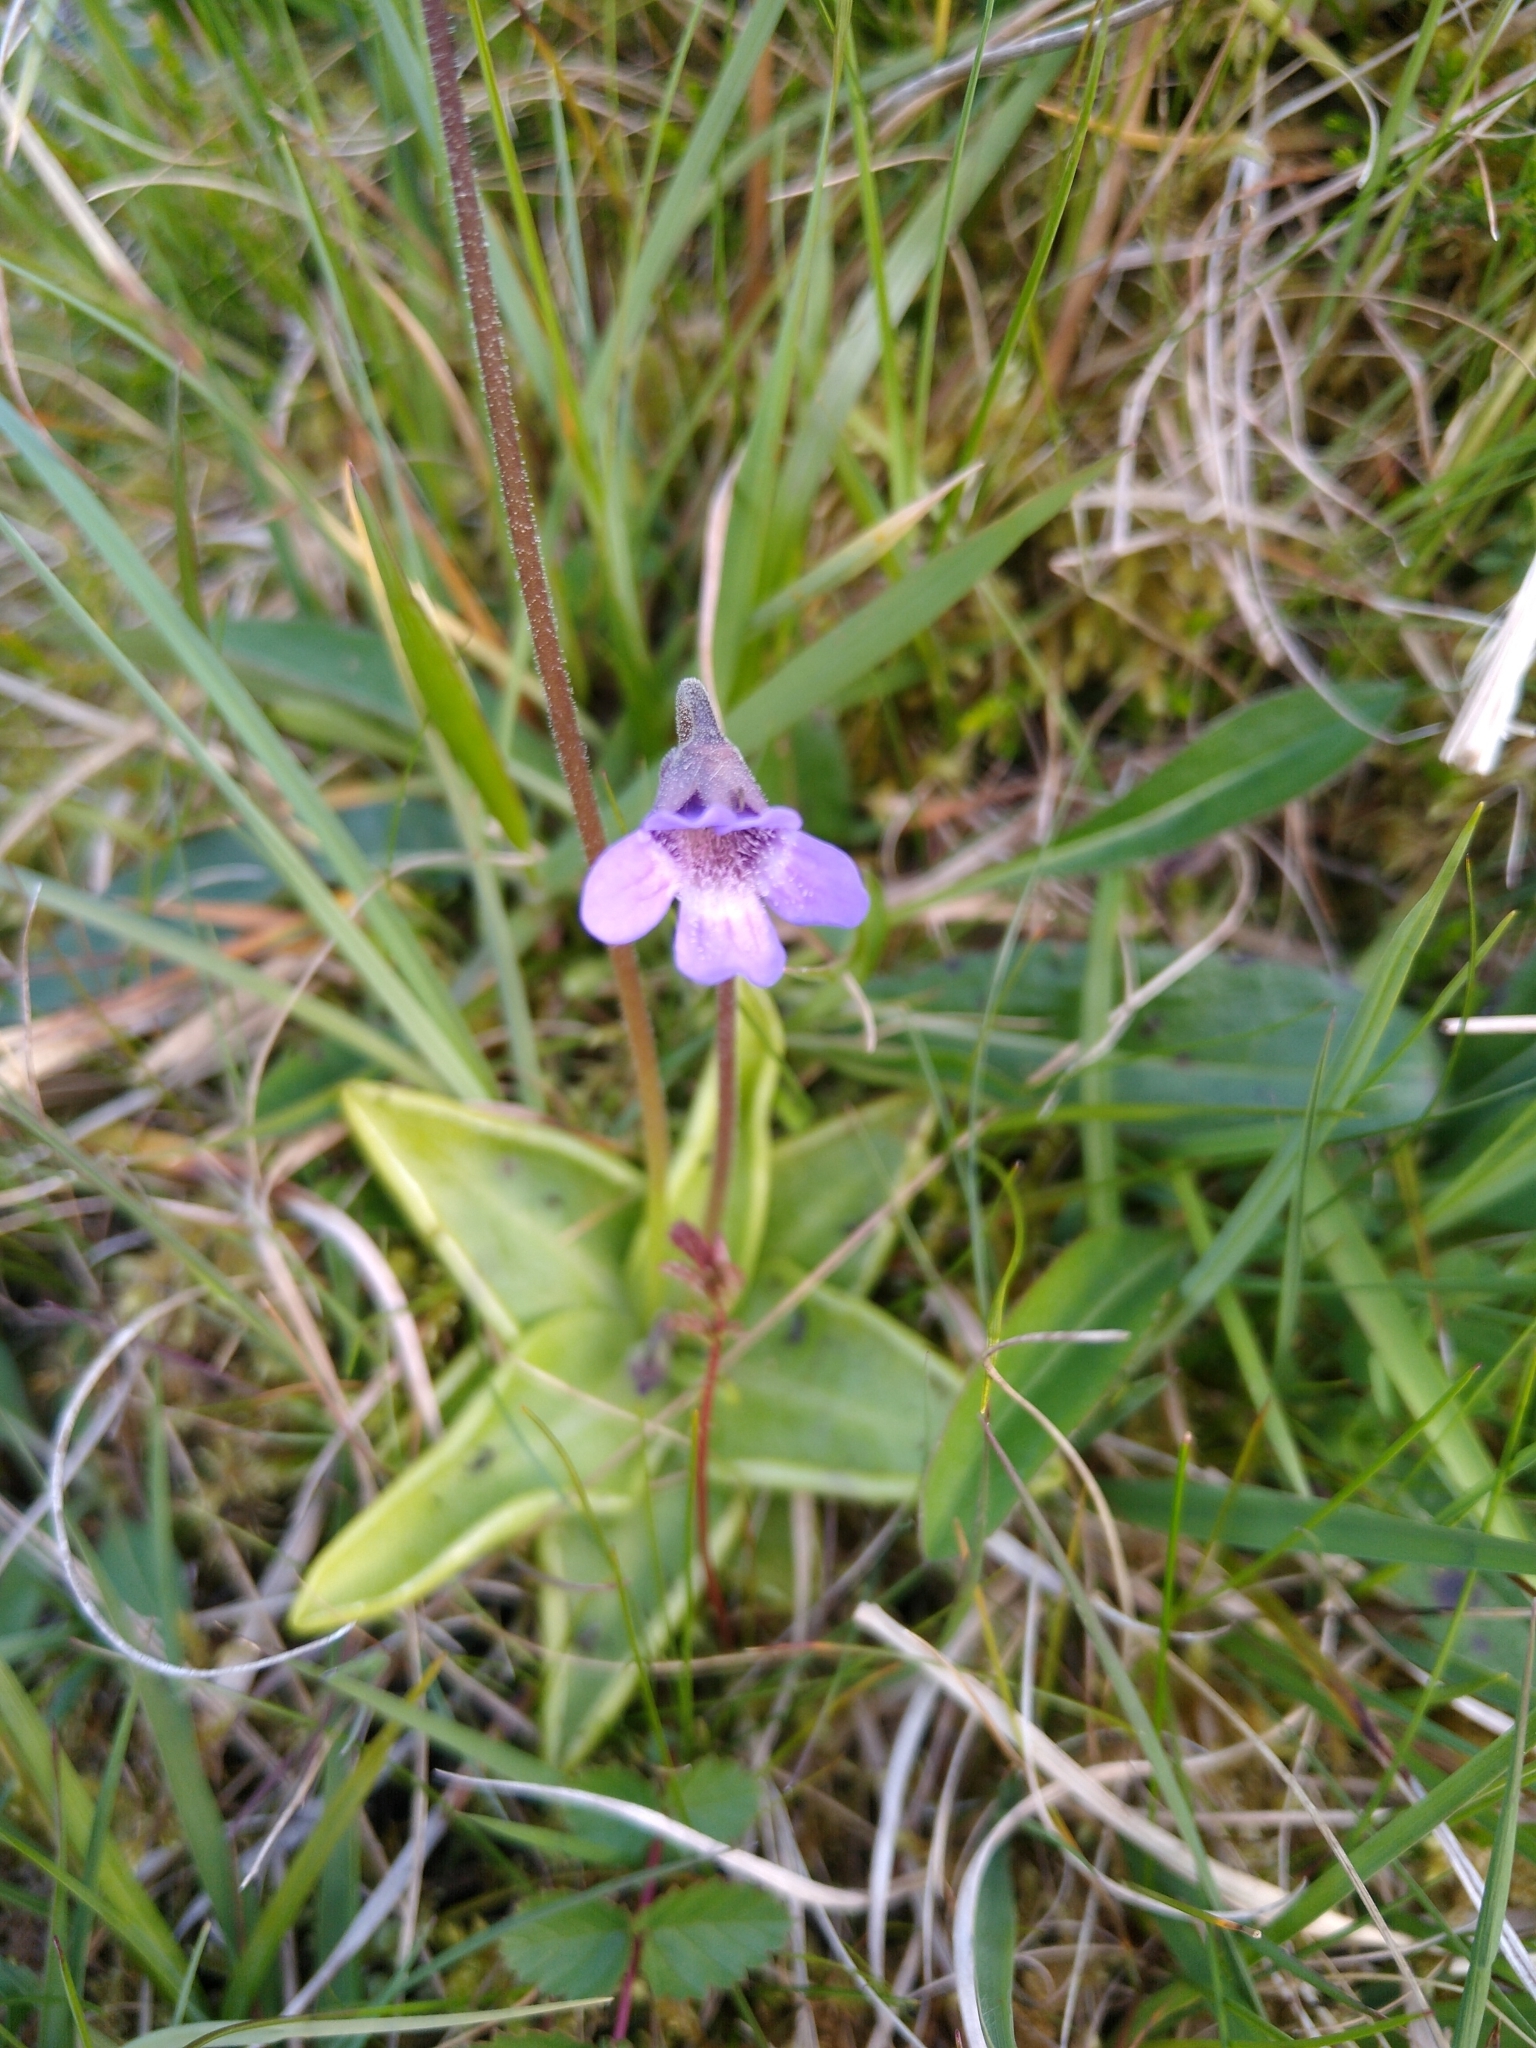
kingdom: Plantae
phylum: Tracheophyta
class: Magnoliopsida
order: Lamiales
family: Lentibulariaceae
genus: Pinguicula
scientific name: Pinguicula vulgaris
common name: Common butterwort
